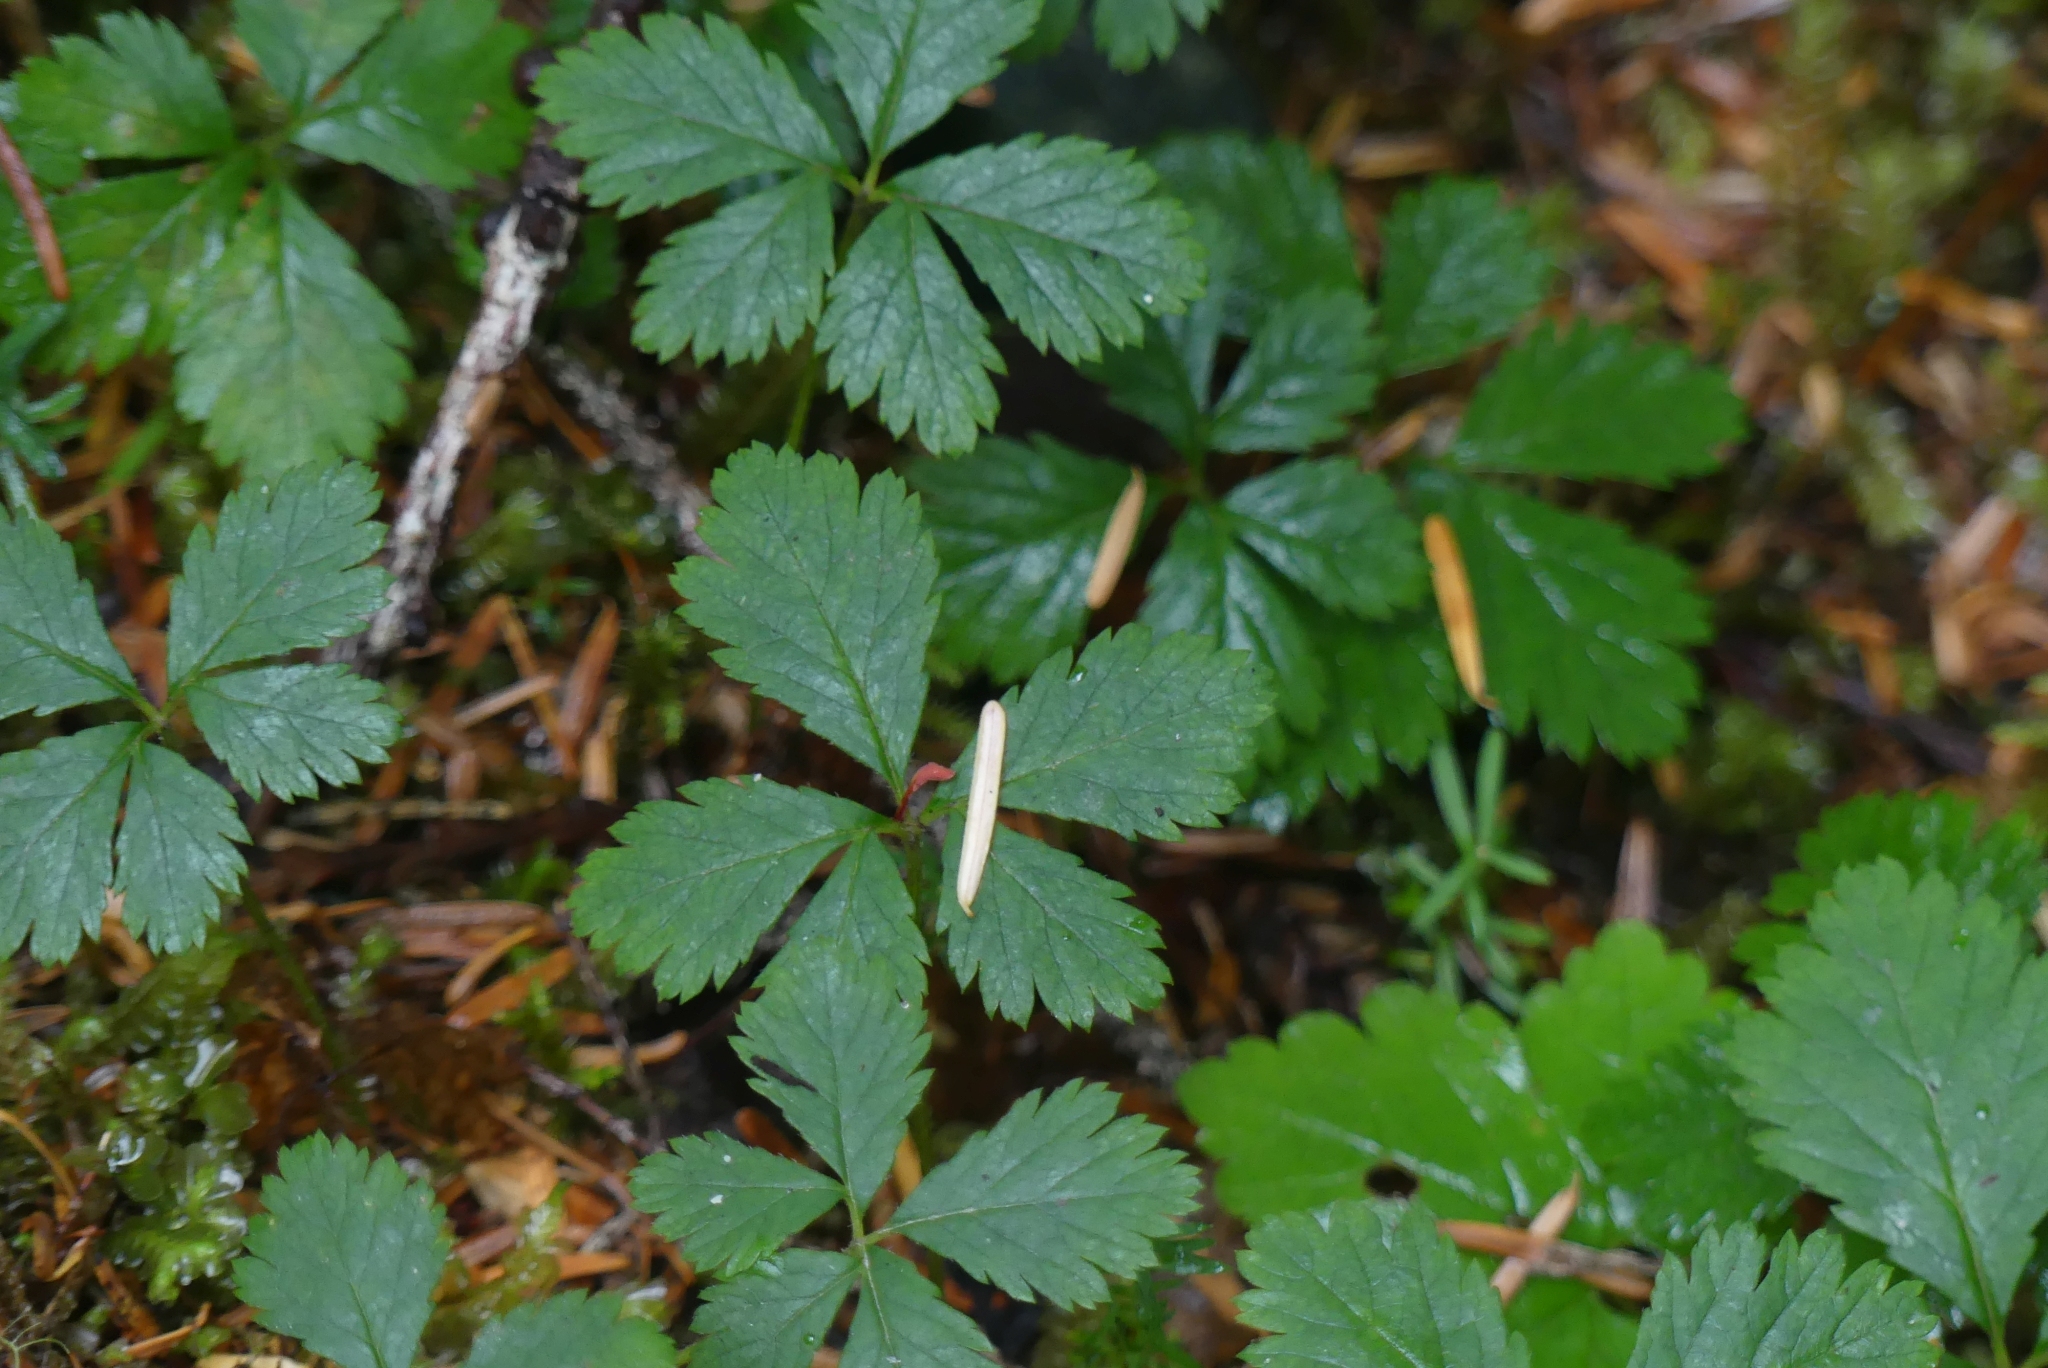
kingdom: Plantae
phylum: Tracheophyta
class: Magnoliopsida
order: Rosales
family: Rosaceae
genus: Rubus
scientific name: Rubus pedatus
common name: Creeping raspberry
